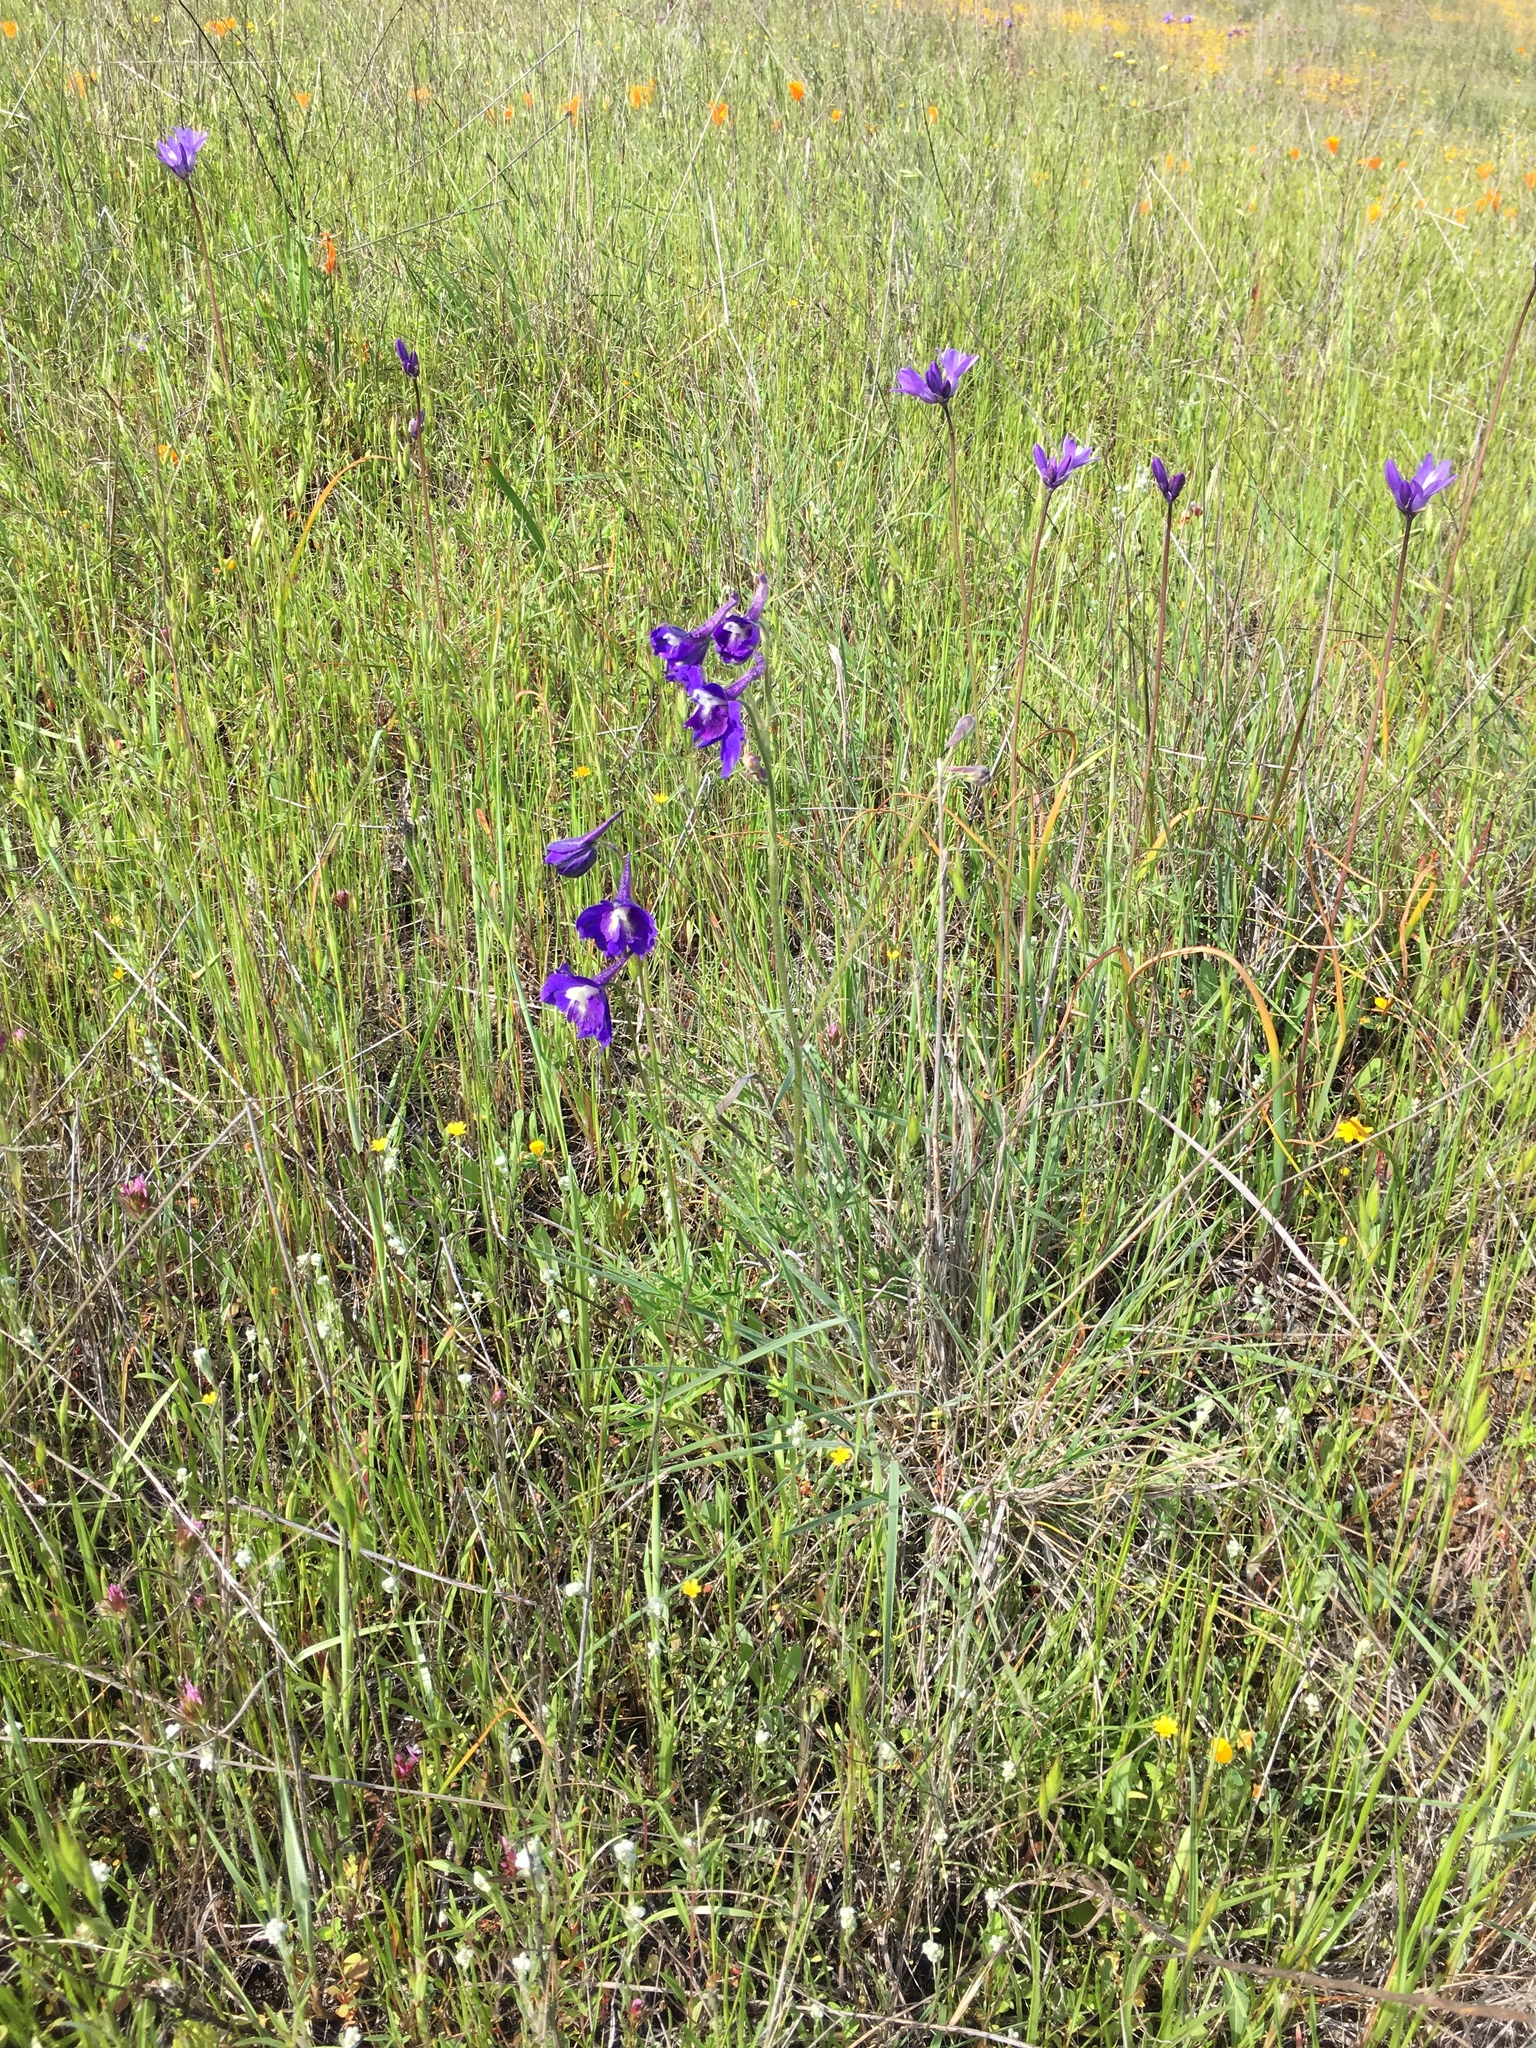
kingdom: Plantae
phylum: Tracheophyta
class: Magnoliopsida
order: Ranunculales
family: Ranunculaceae
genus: Delphinium
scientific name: Delphinium variegatum
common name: Royal larkspur
